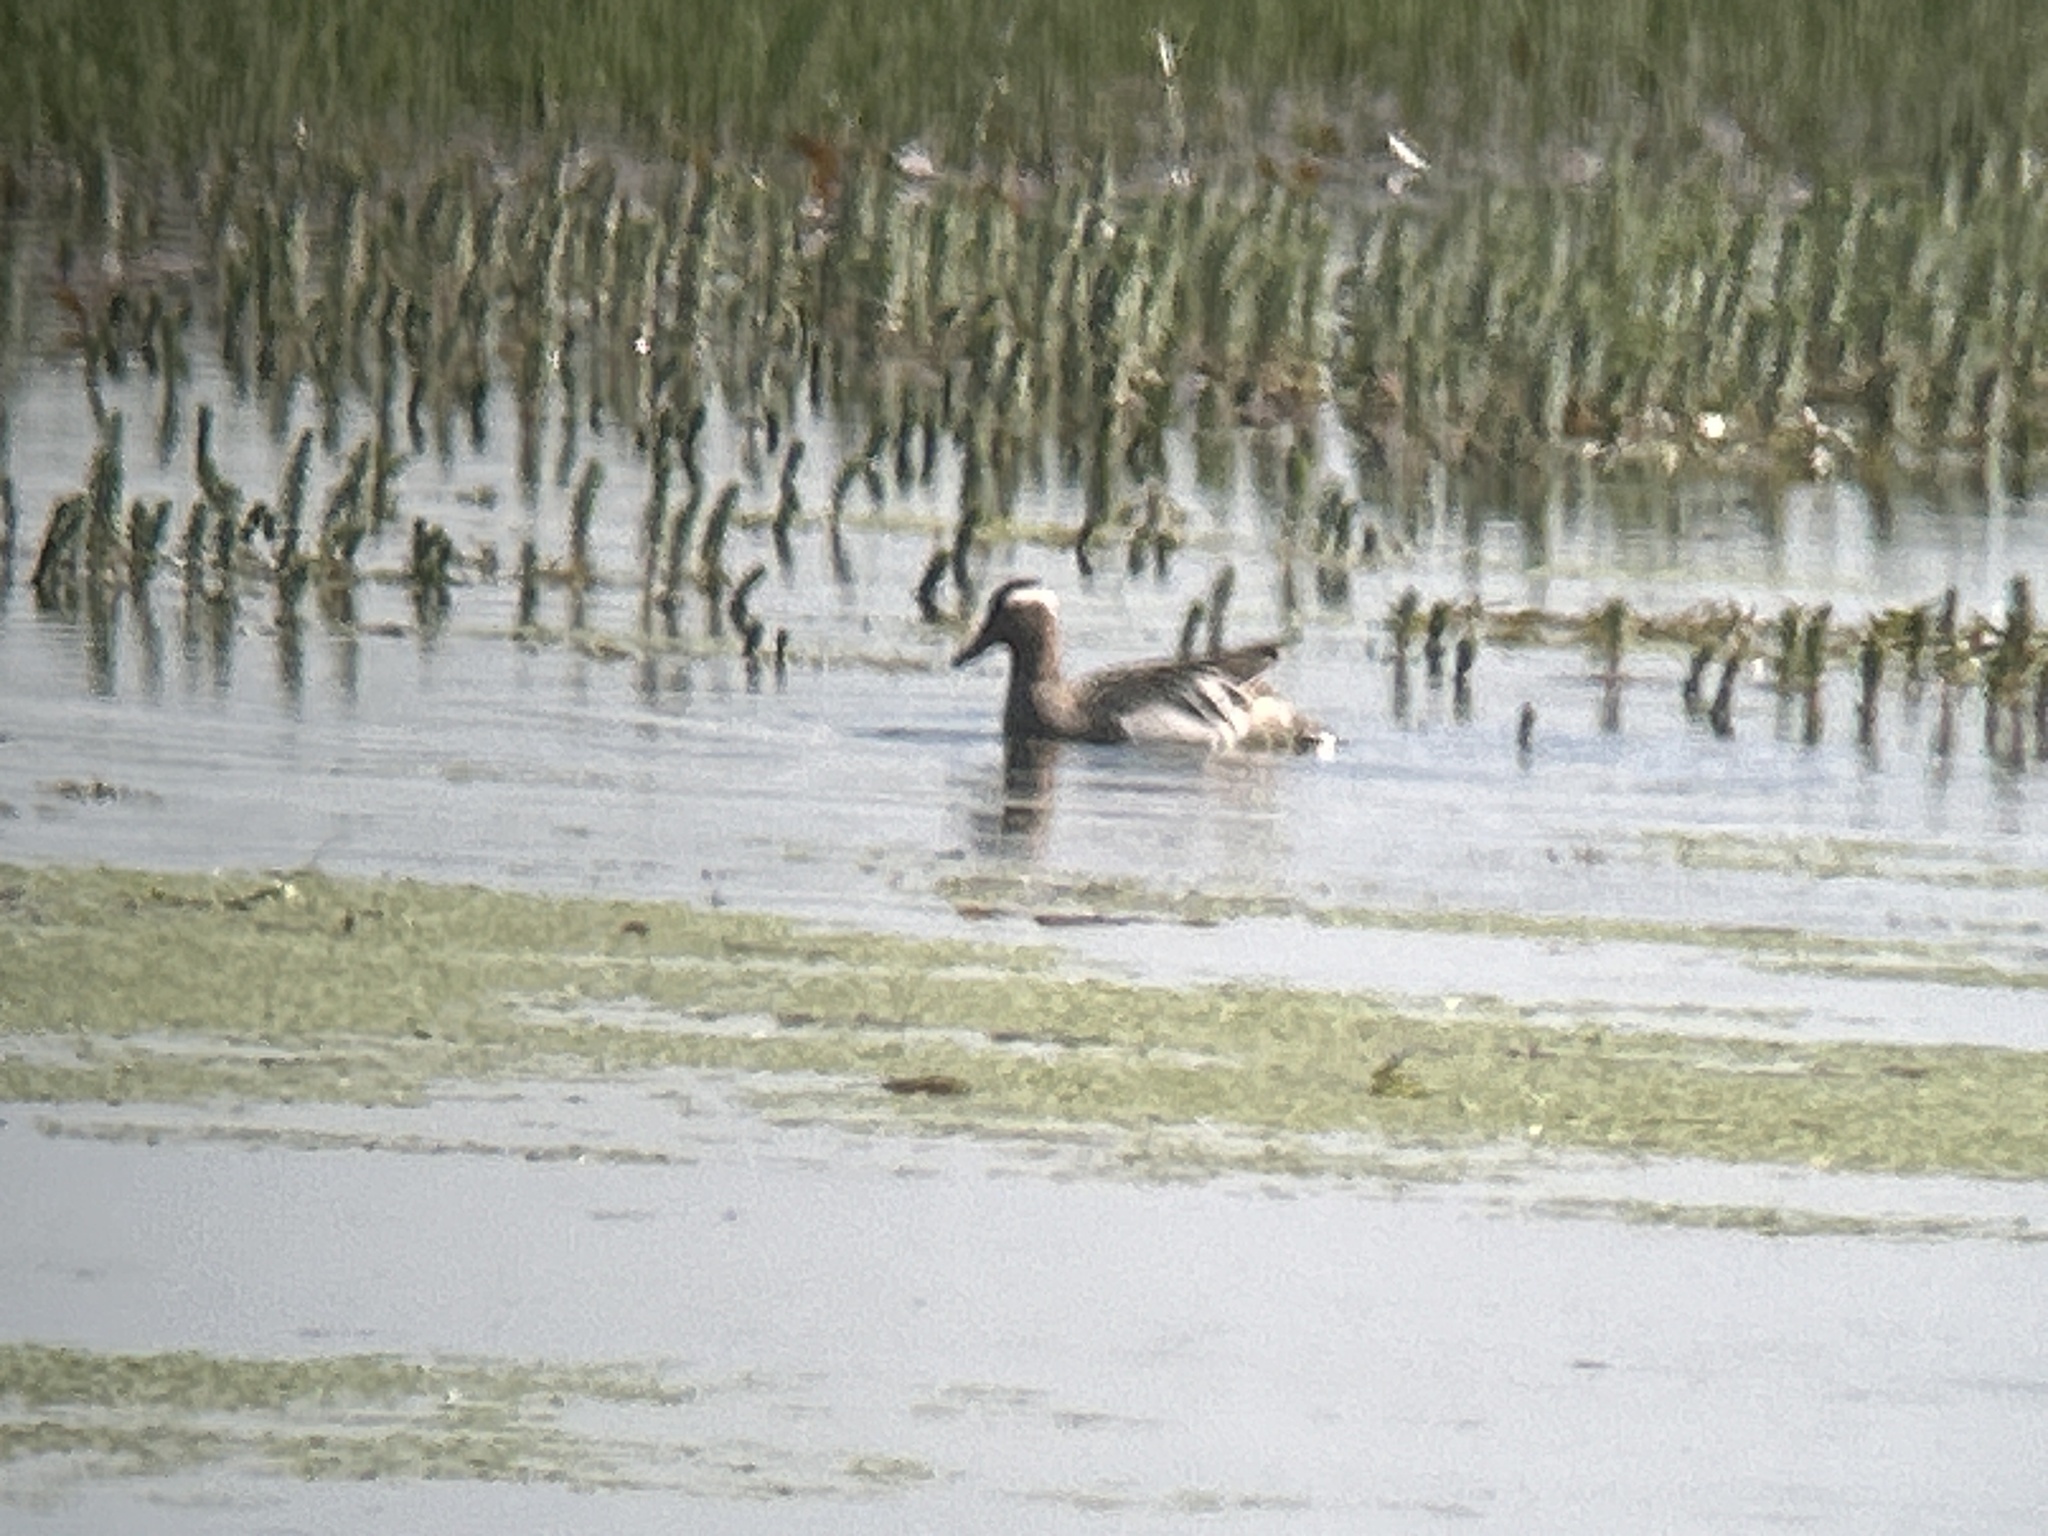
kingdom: Animalia
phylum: Chordata
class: Aves
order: Anseriformes
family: Anatidae
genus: Spatula
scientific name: Spatula querquedula
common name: Garganey
